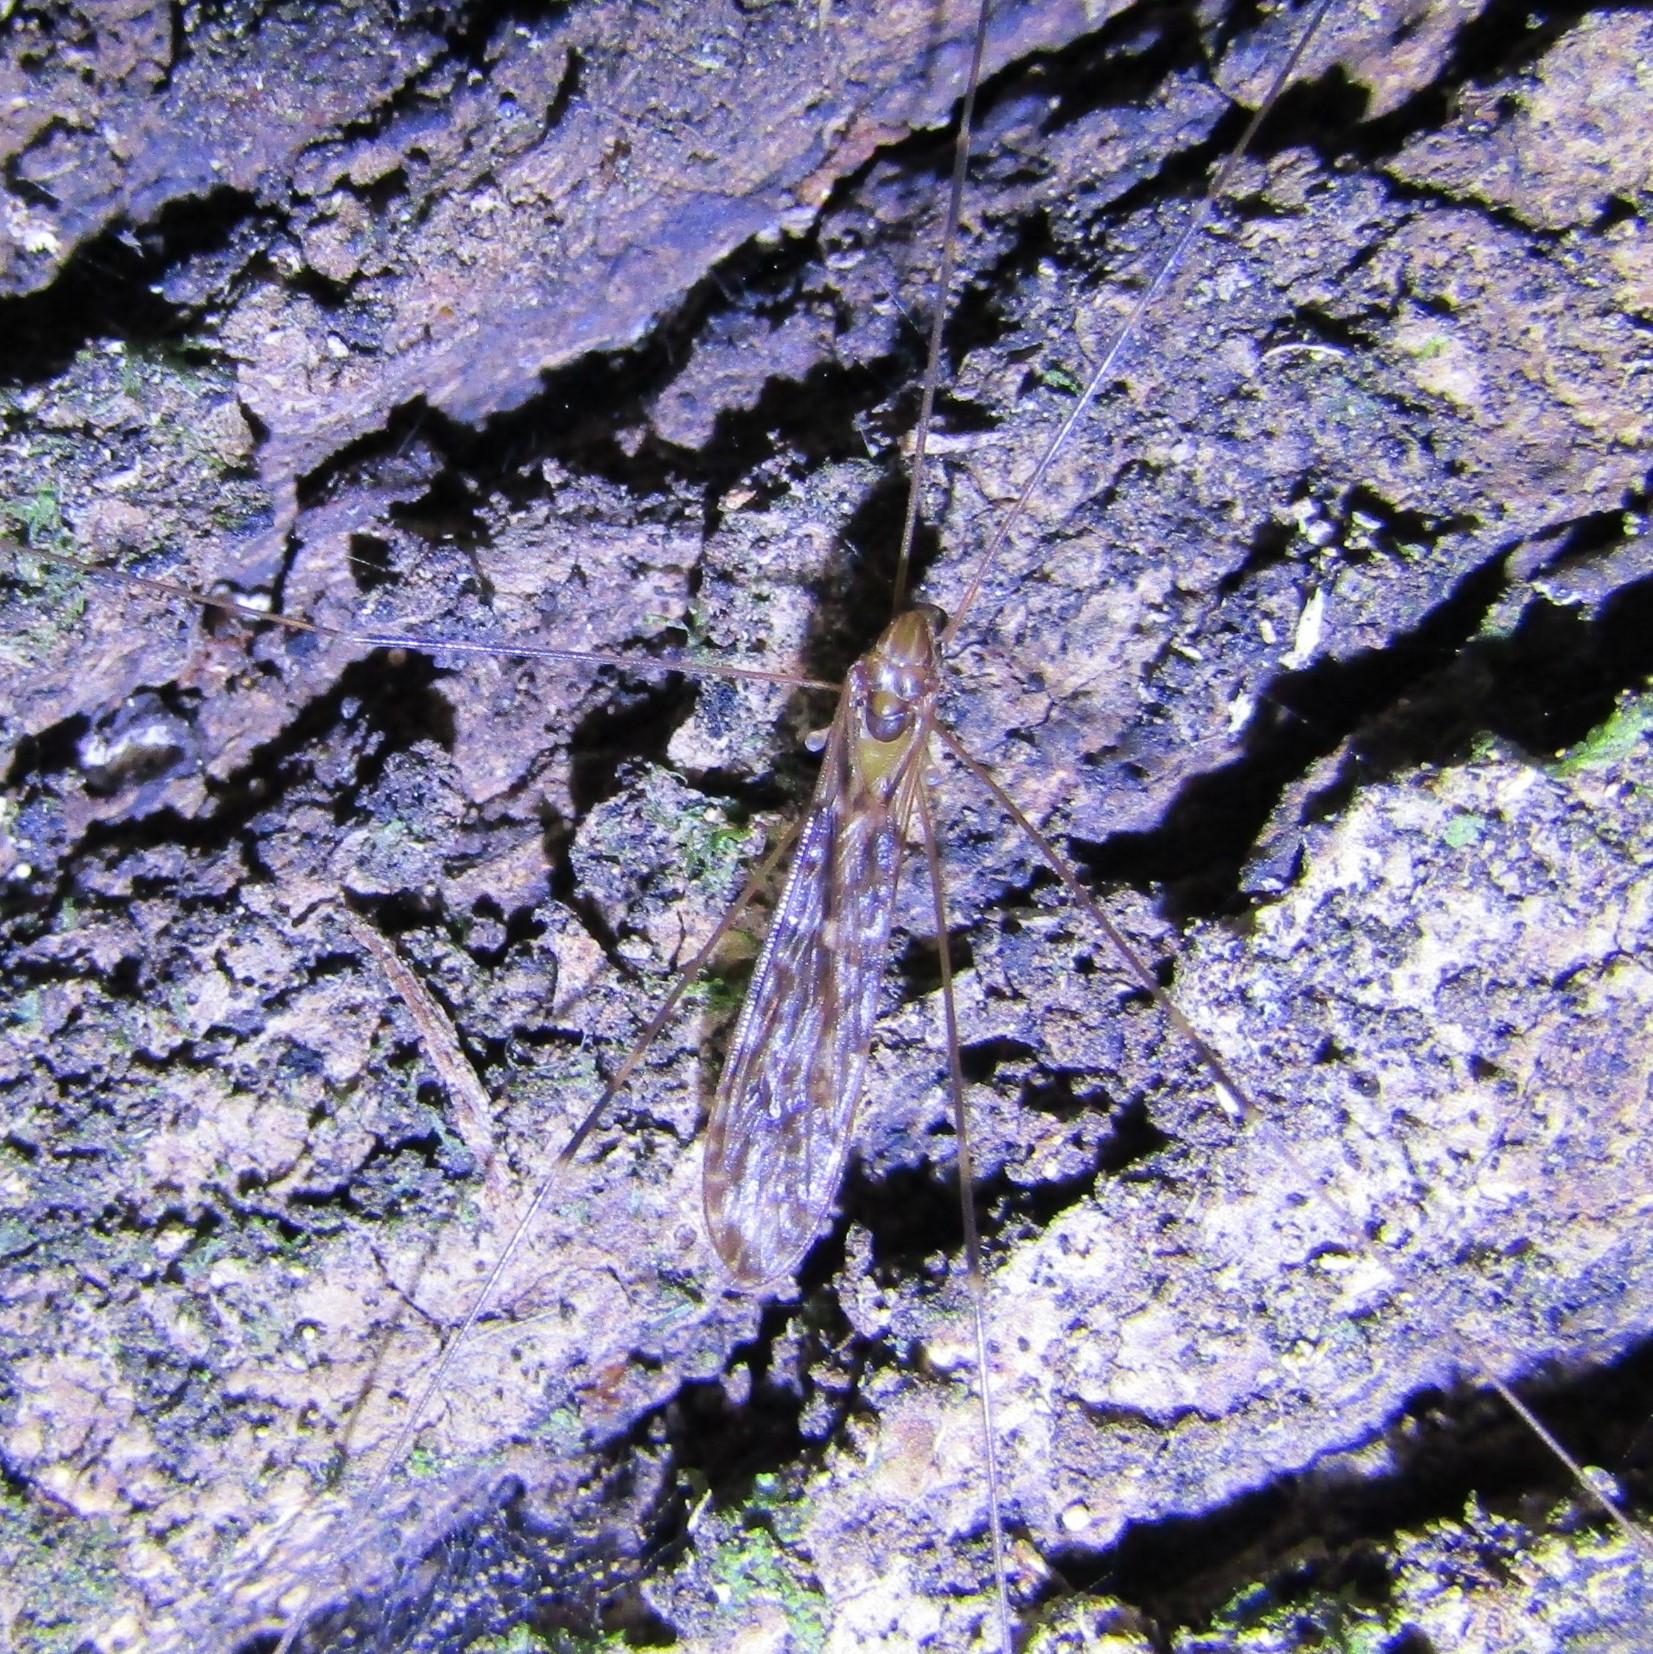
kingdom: Animalia
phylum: Arthropoda
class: Insecta
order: Diptera
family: Limoniidae
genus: Discobola
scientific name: Discobola dohrni
